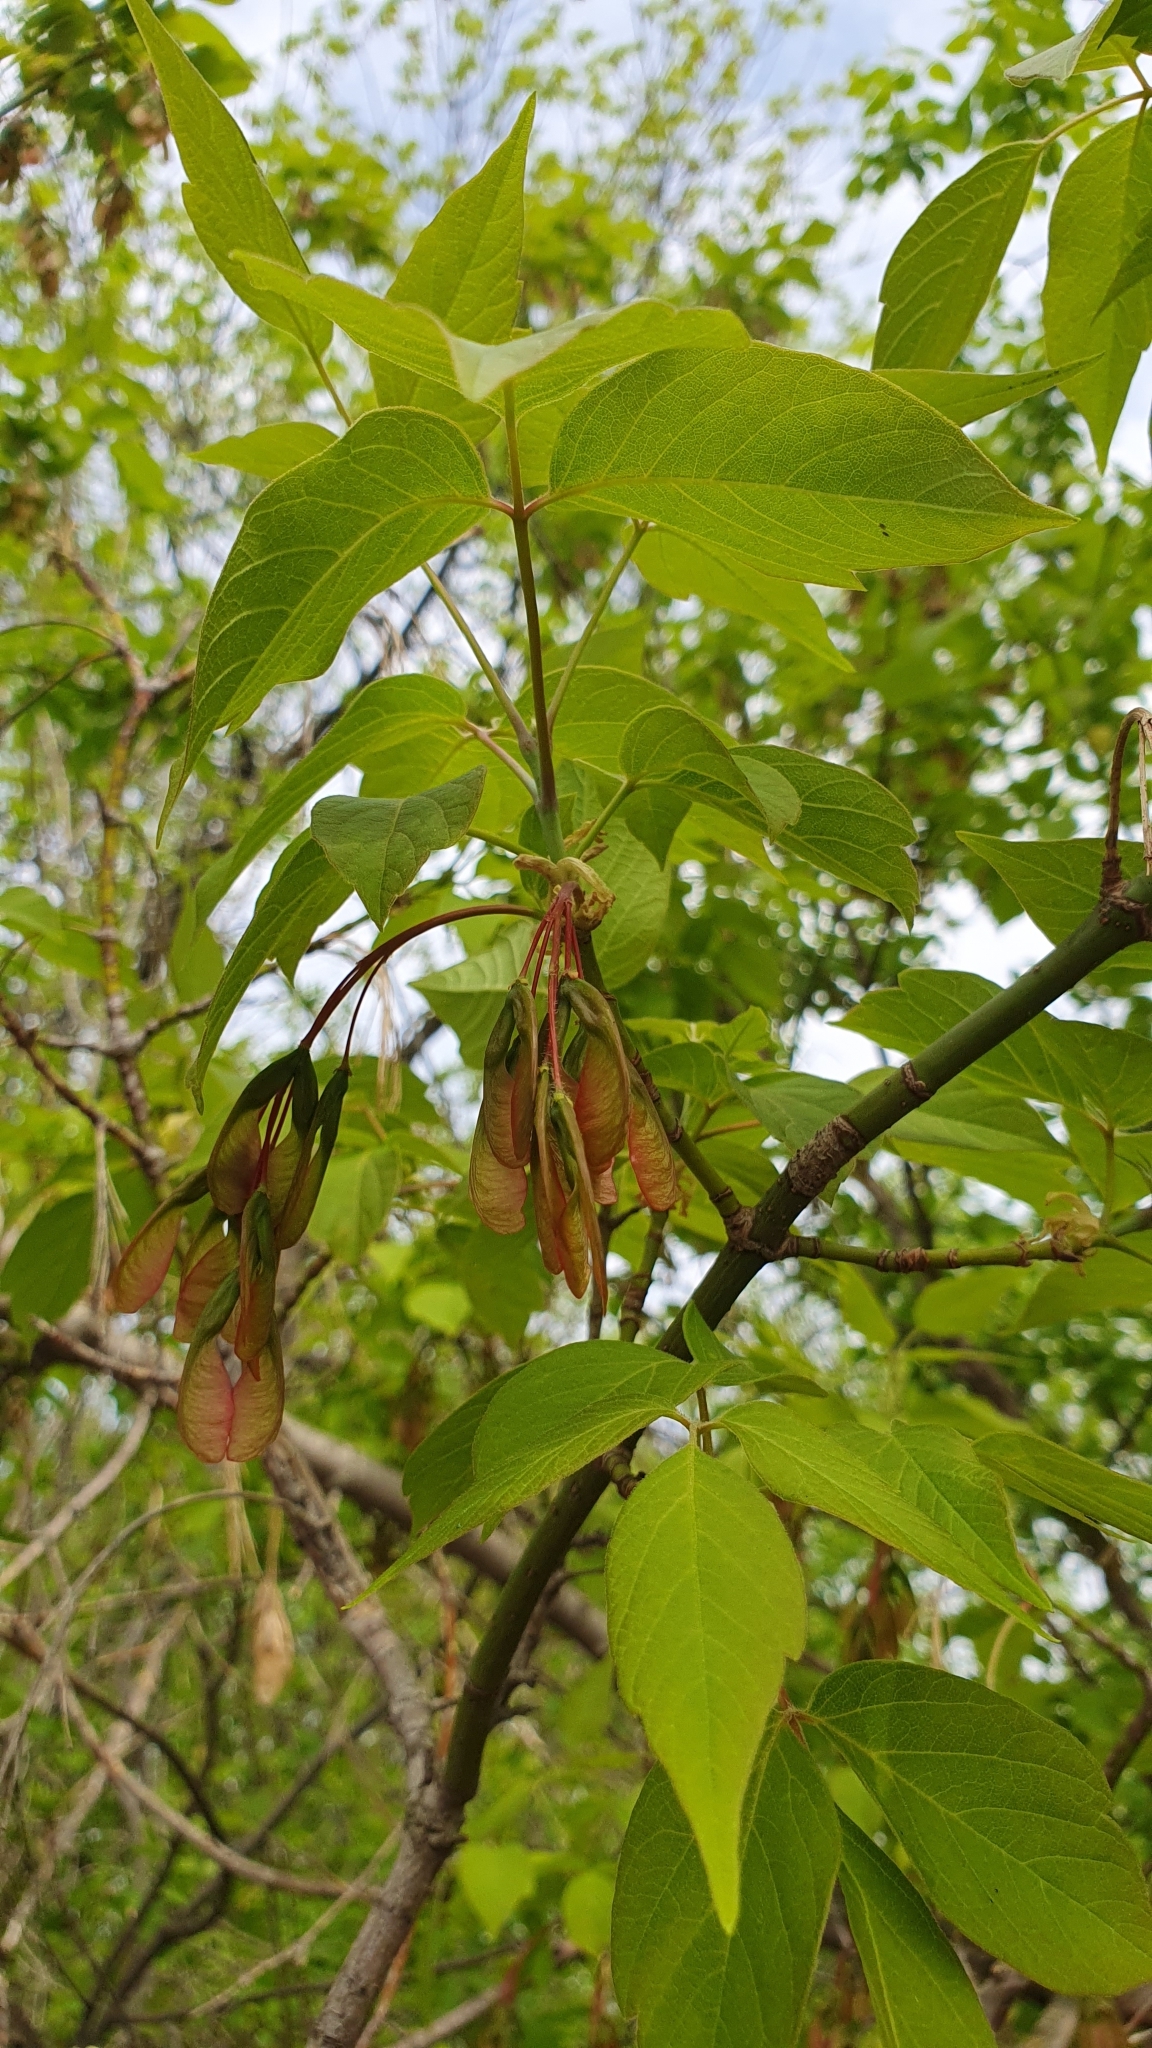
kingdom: Plantae
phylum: Tracheophyta
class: Magnoliopsida
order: Sapindales
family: Sapindaceae
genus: Acer
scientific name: Acer negundo
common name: Ashleaf maple
